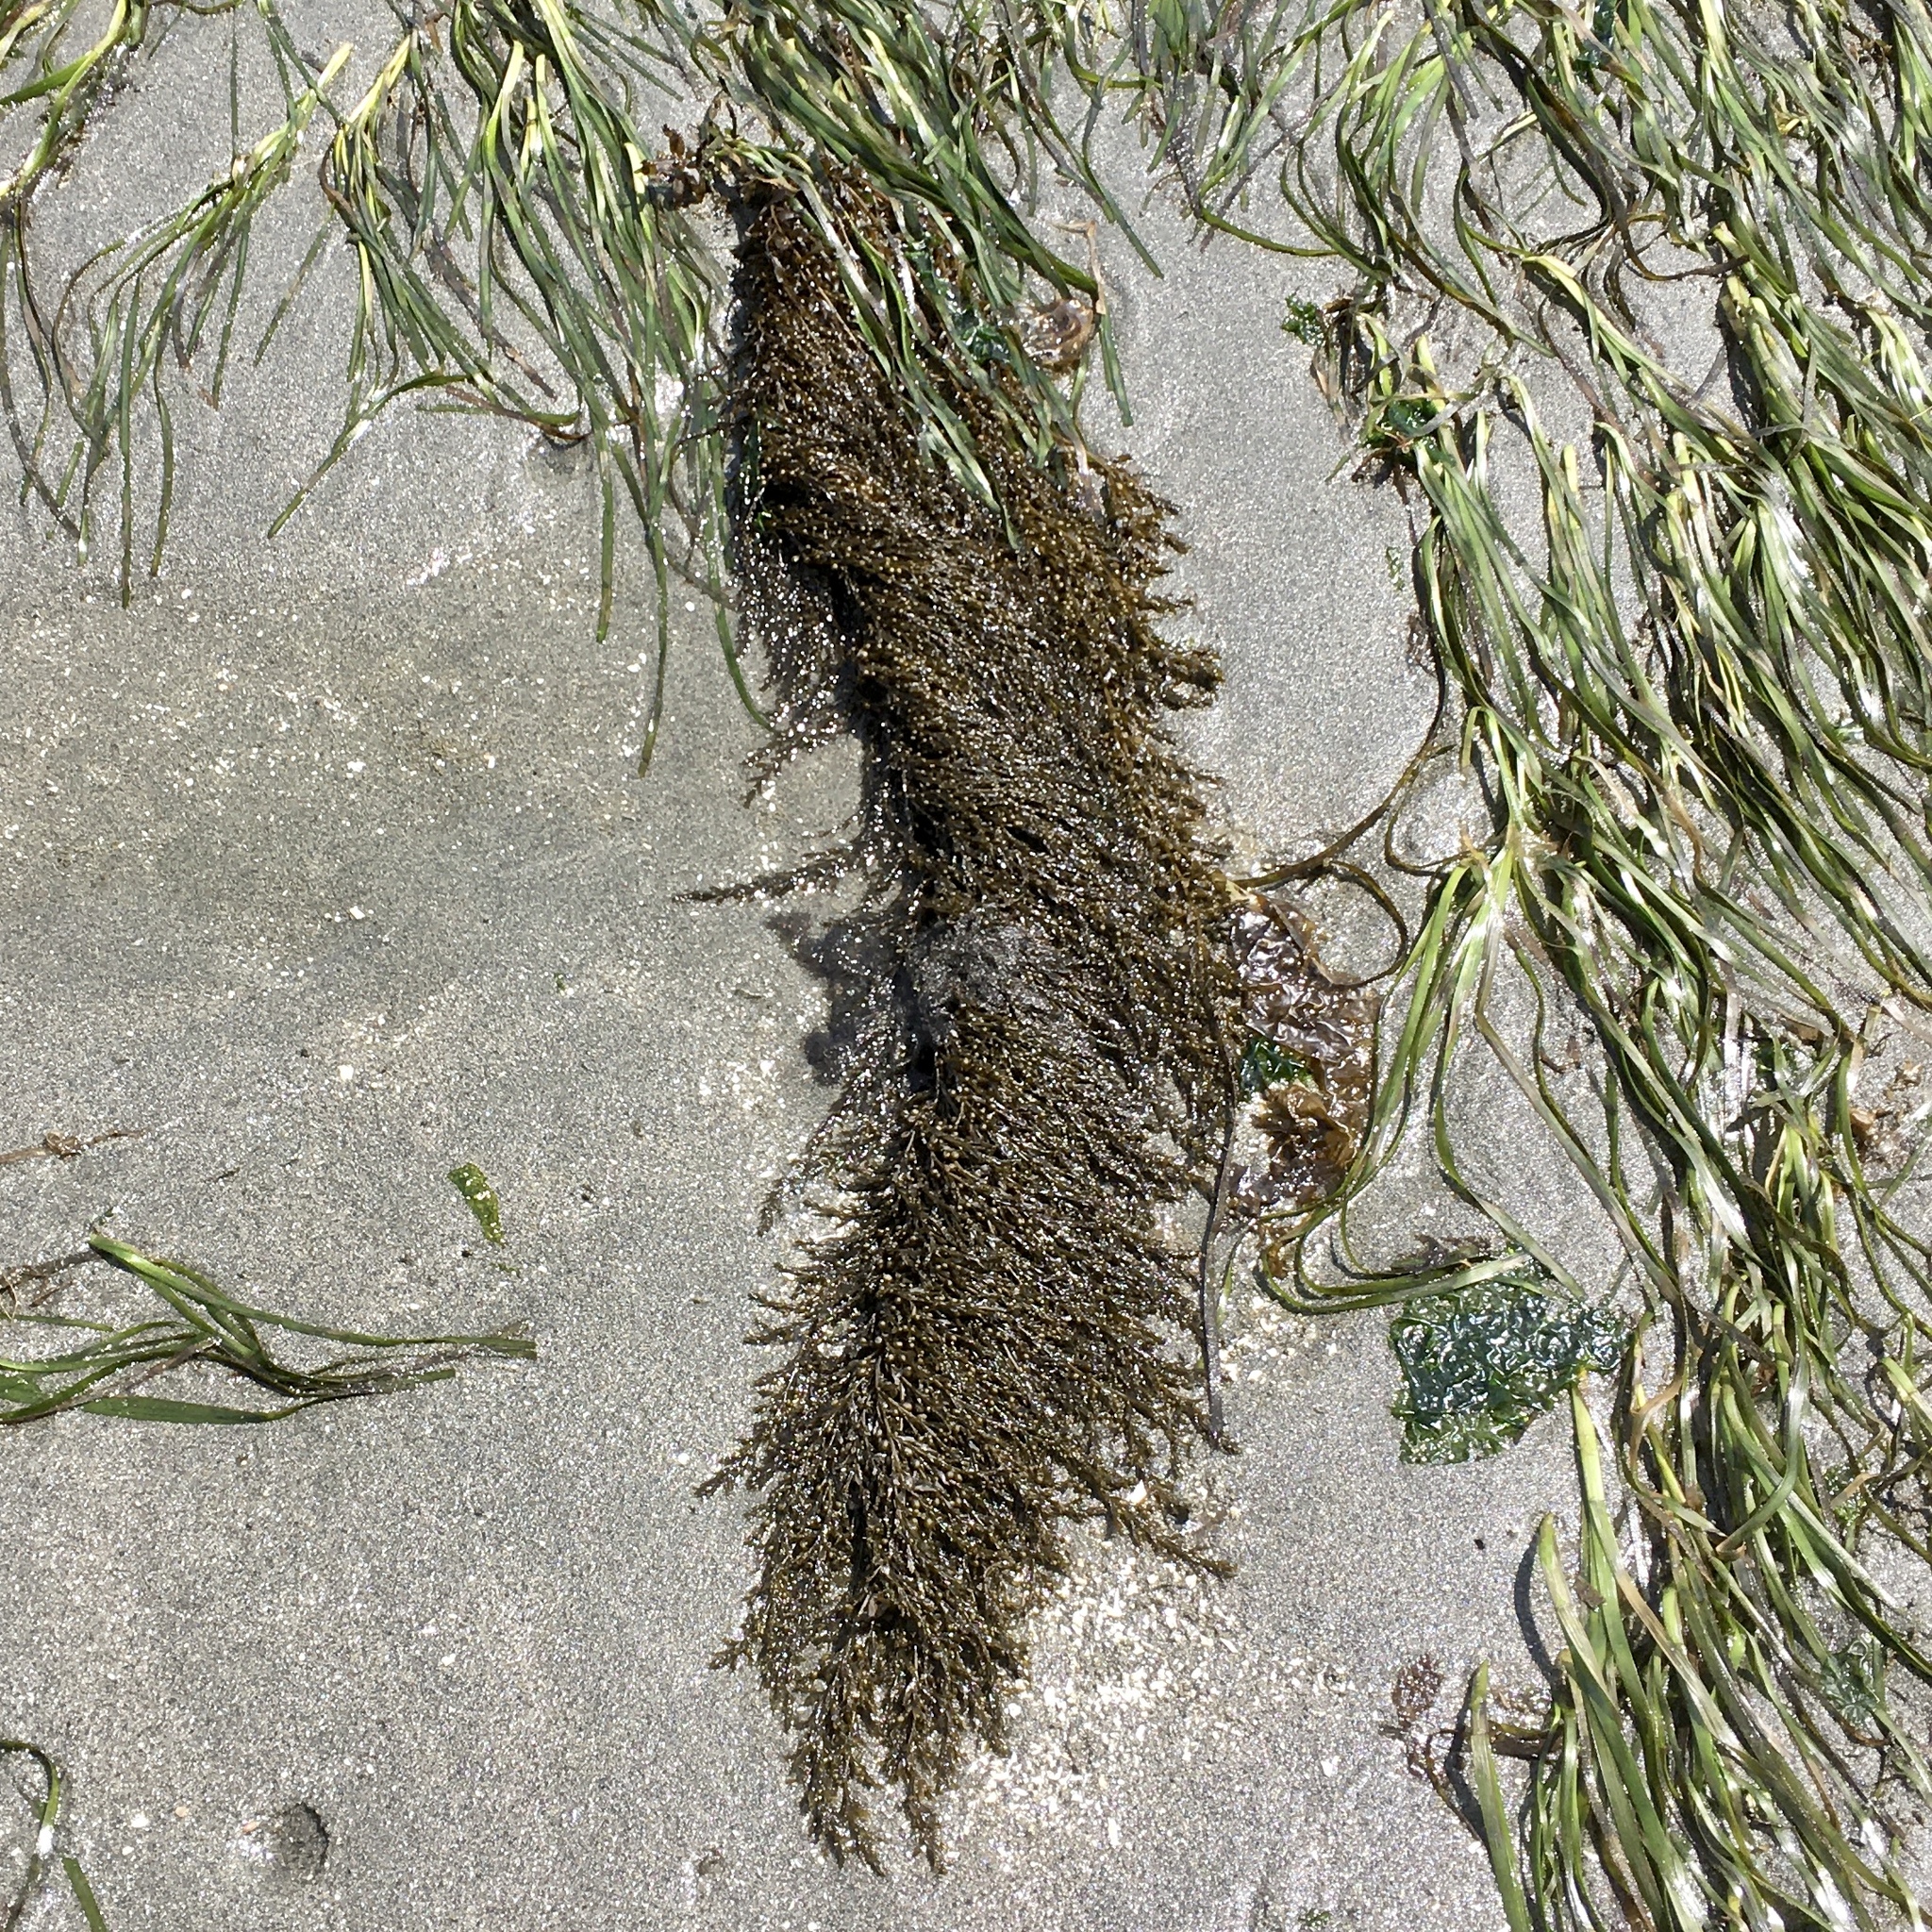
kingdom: Chromista
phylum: Ochrophyta
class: Phaeophyceae
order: Fucales
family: Sargassaceae
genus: Sargassum
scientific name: Sargassum muticum
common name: Japweed
